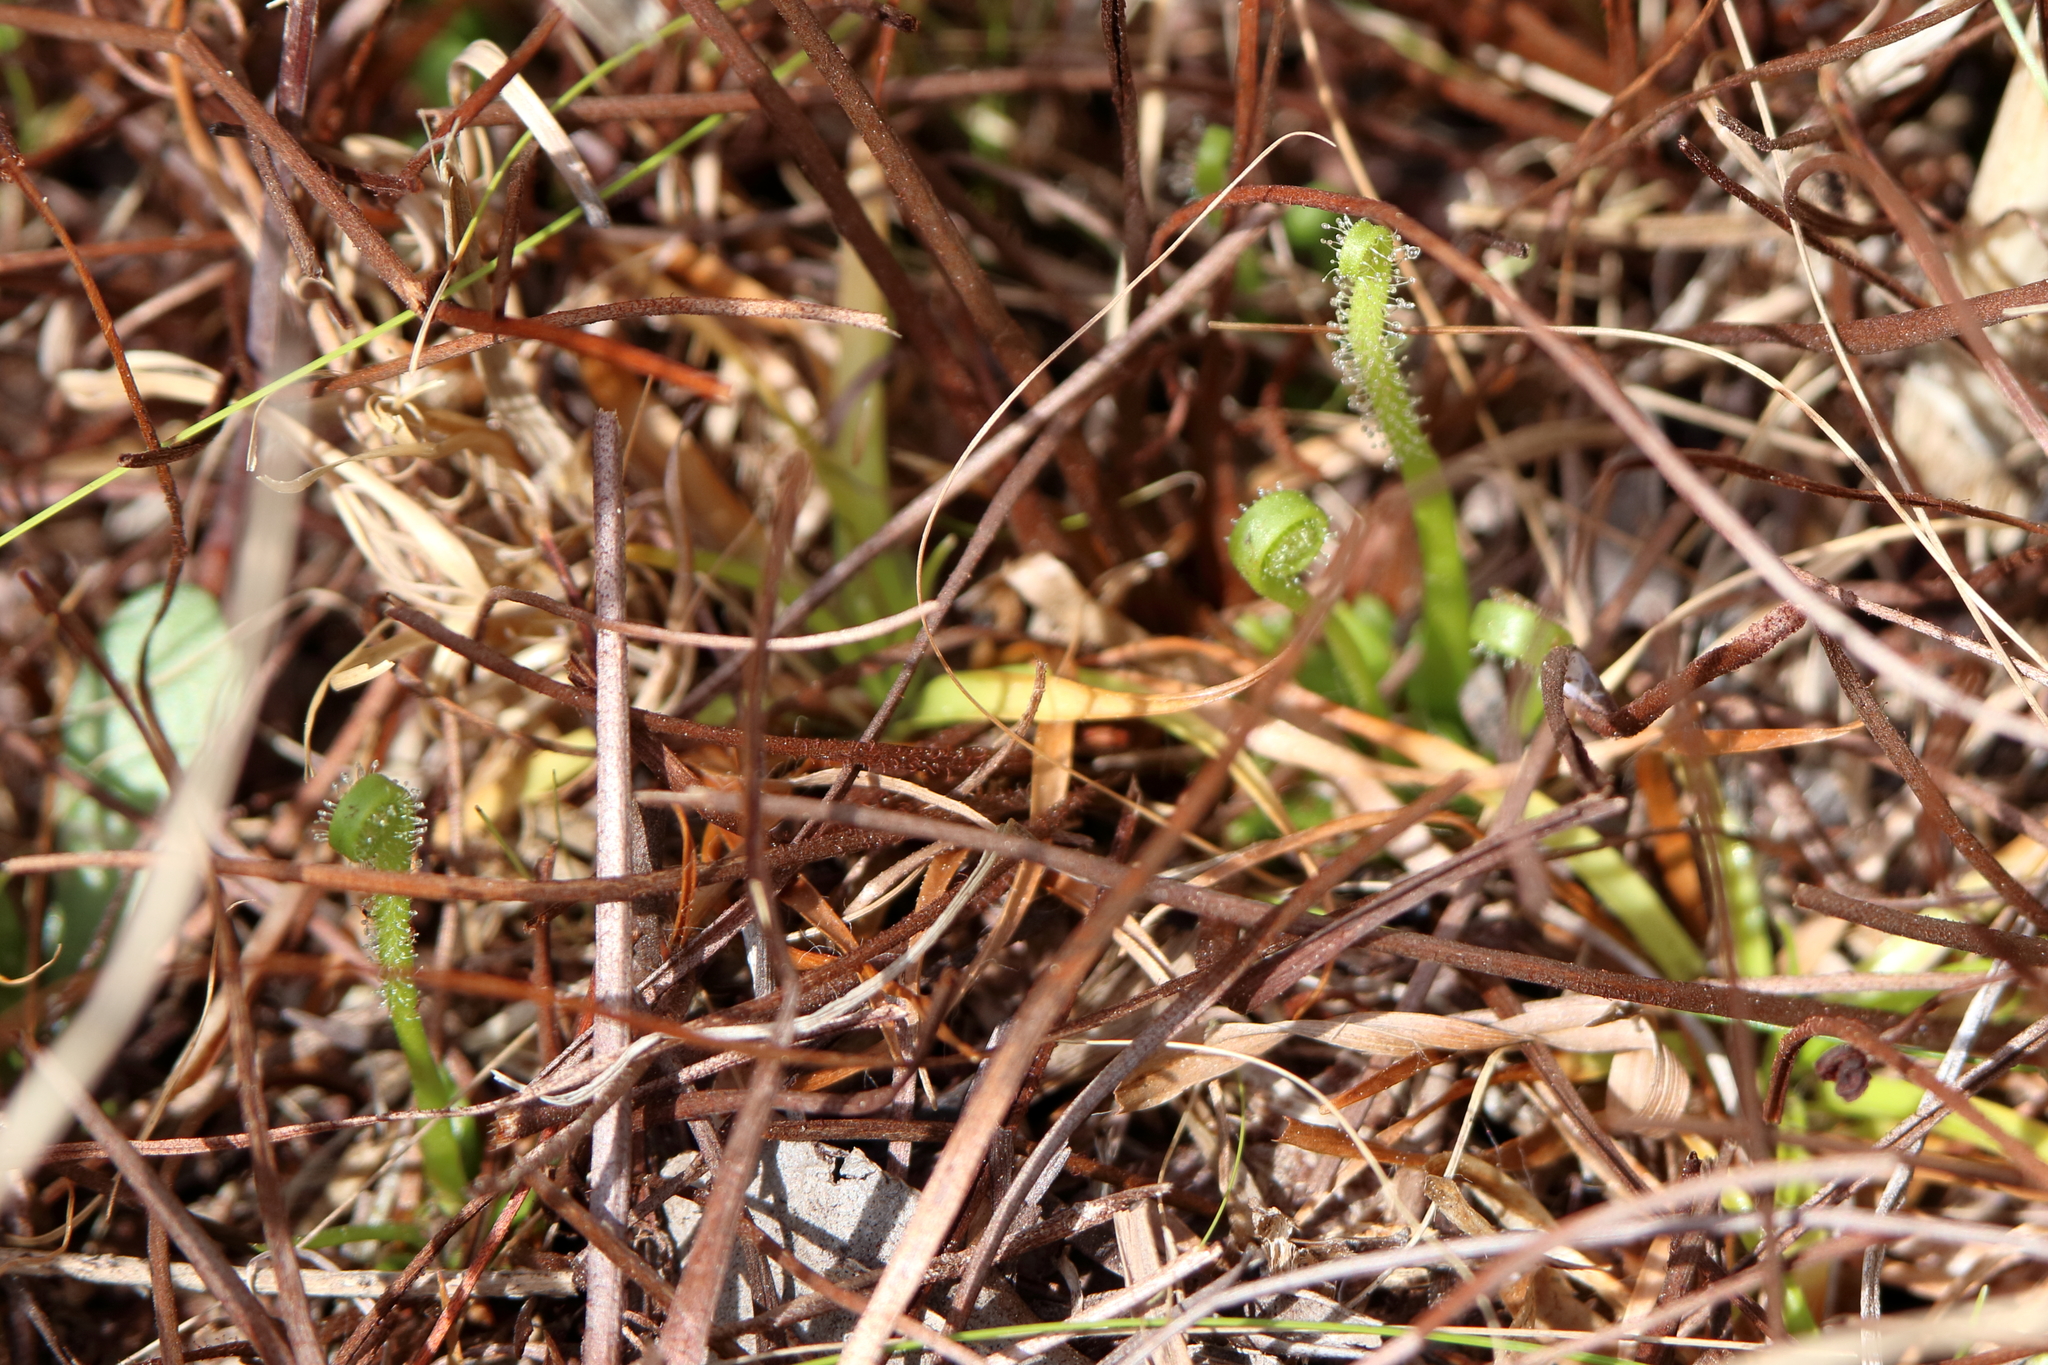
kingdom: Plantae
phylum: Tracheophyta
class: Magnoliopsida
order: Caryophyllales
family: Droseraceae
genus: Drosera
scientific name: Drosera filiformis
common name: Dew-thread
